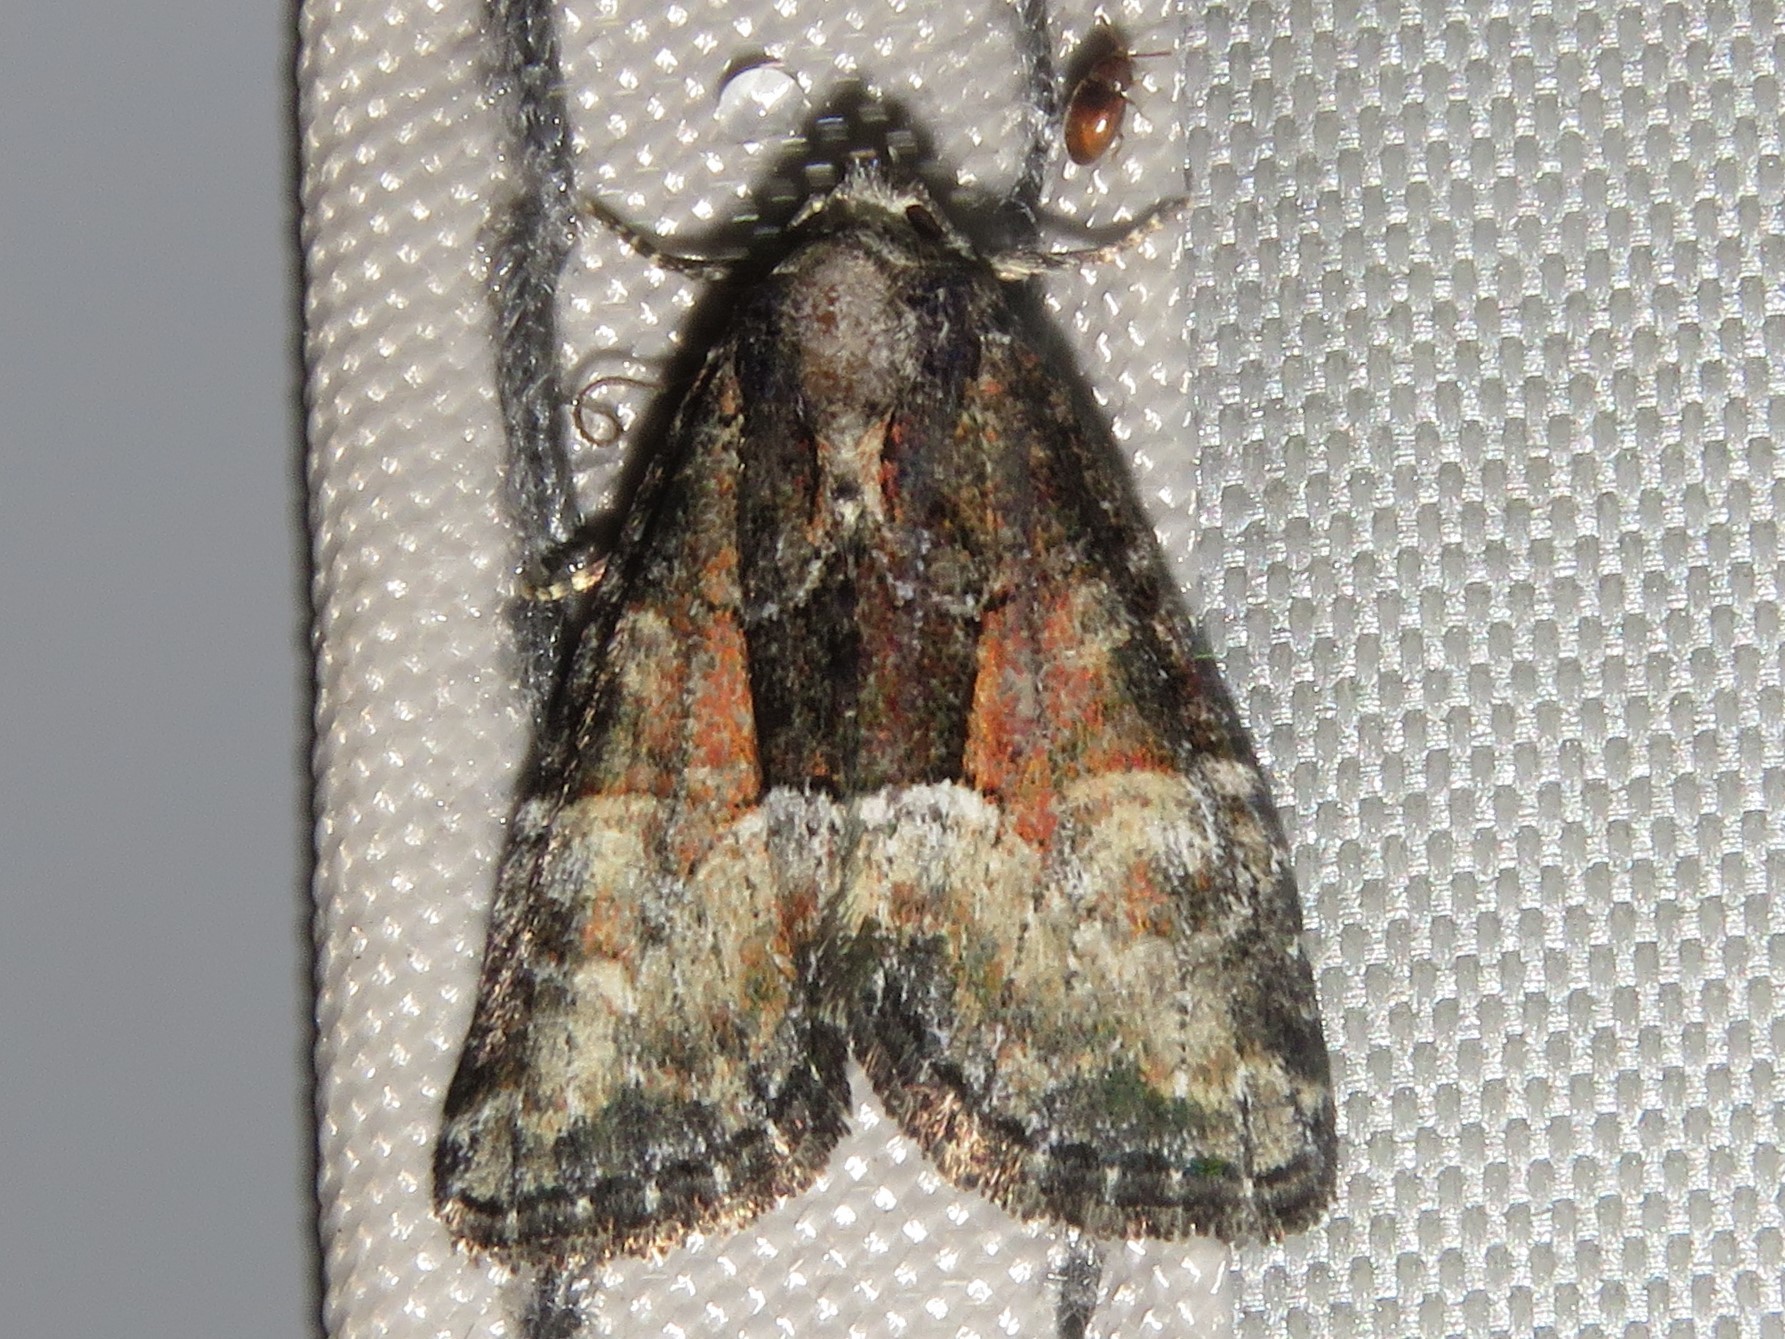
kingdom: Animalia
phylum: Arthropoda
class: Insecta
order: Lepidoptera
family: Noctuidae
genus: Neoligia
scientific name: Neoligia subjuncta
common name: Connected brocade
